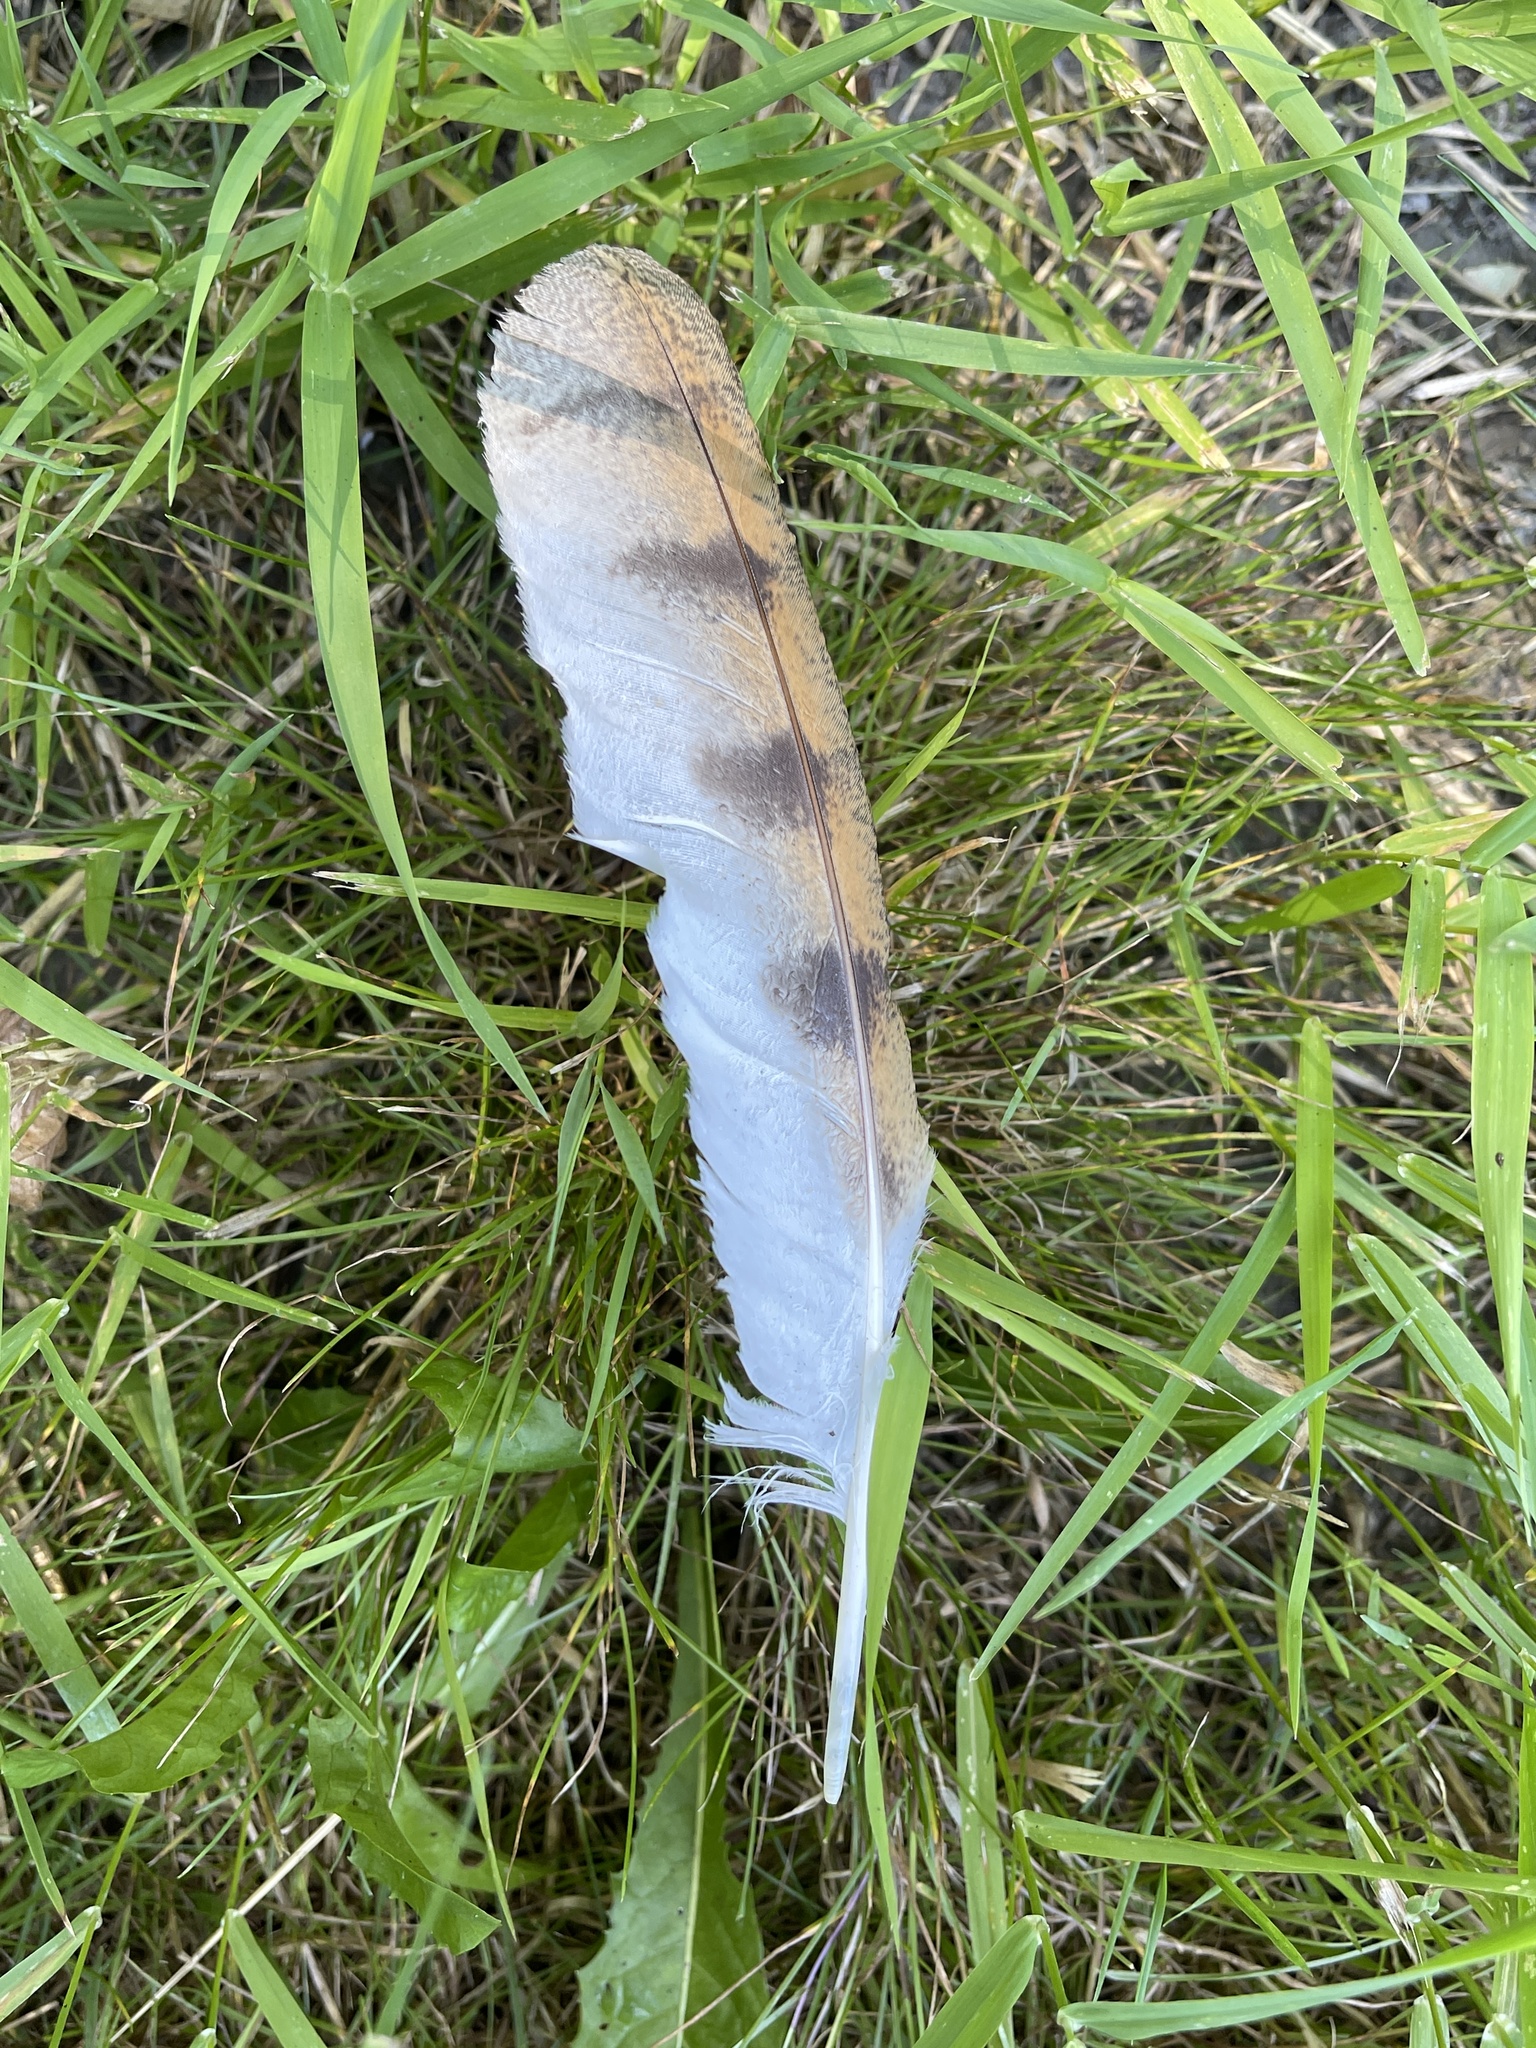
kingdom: Animalia
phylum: Chordata
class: Aves
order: Strigiformes
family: Tytonidae
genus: Tyto
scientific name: Tyto alba
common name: Barn owl
